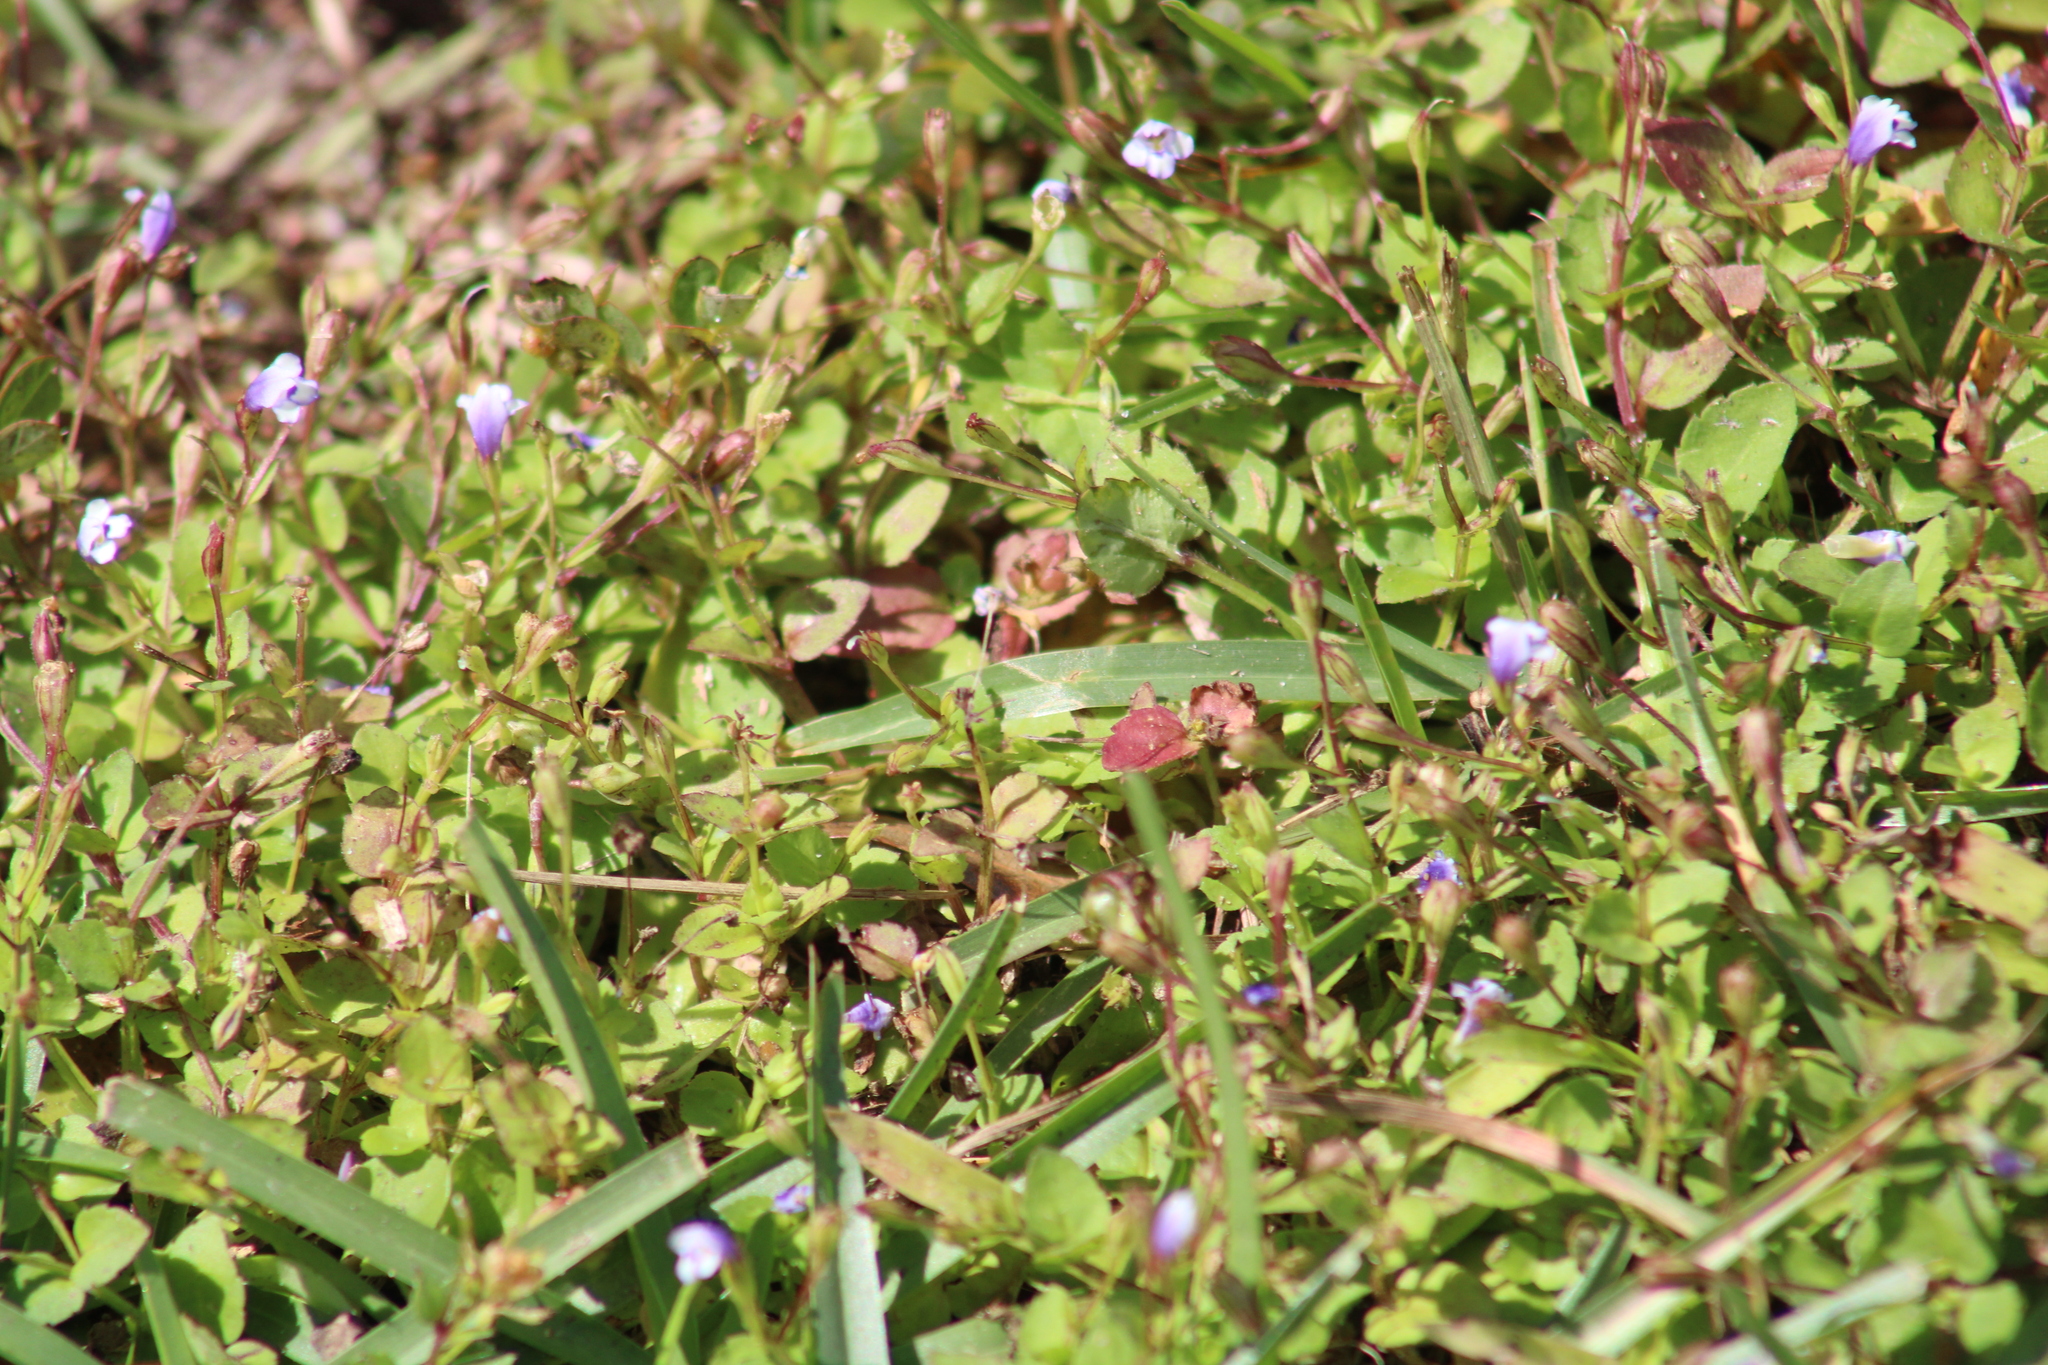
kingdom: Plantae
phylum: Tracheophyta
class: Magnoliopsida
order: Lamiales
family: Linderniaceae
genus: Torenia
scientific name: Torenia crustacea
